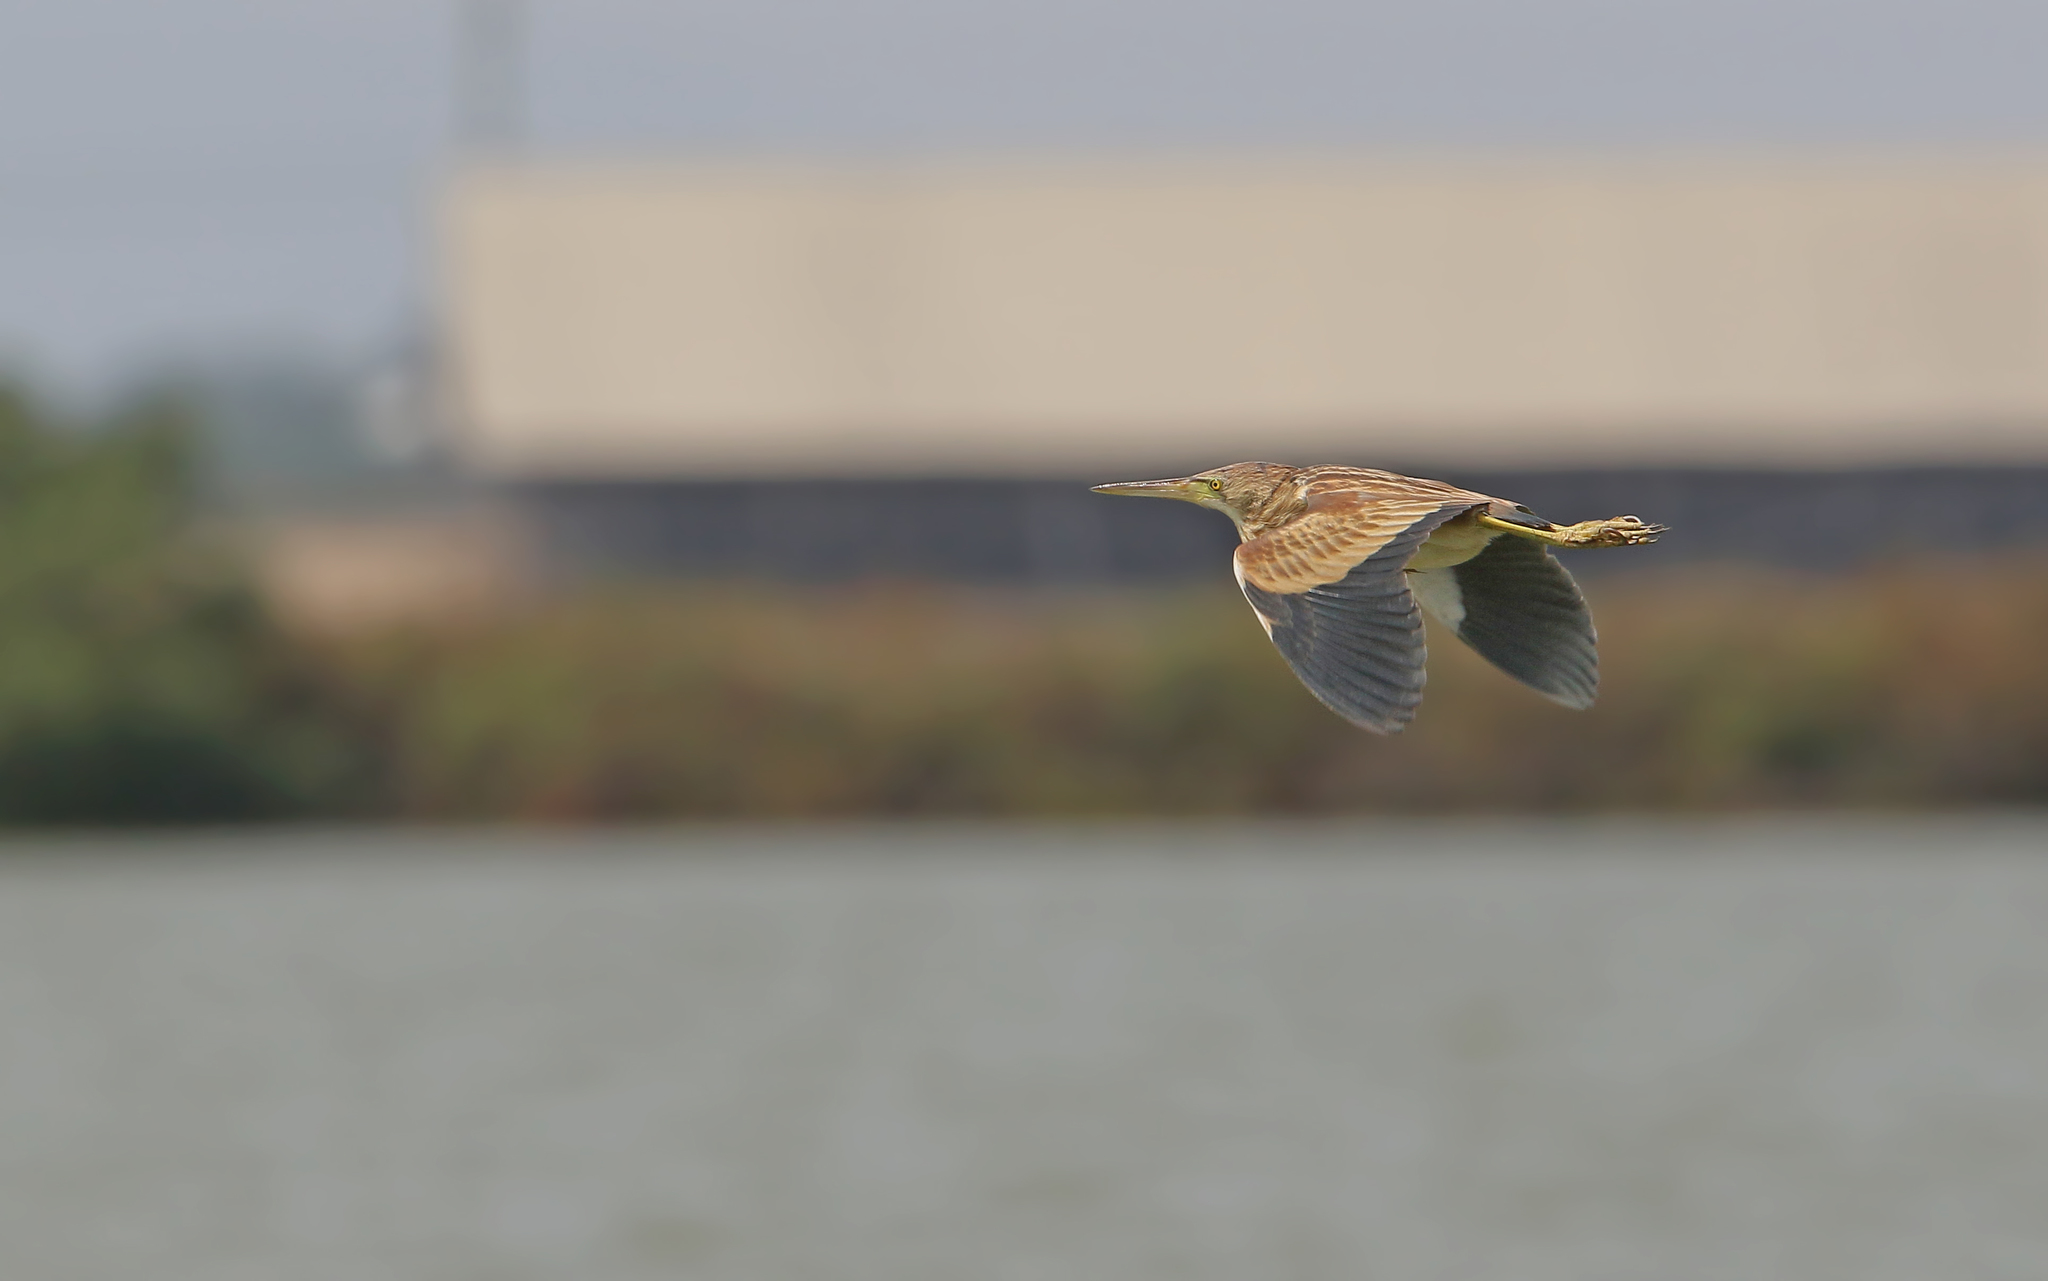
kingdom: Animalia
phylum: Chordata
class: Aves
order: Pelecaniformes
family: Ardeidae
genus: Ixobrychus
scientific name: Ixobrychus sinensis
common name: Yellow bittern
